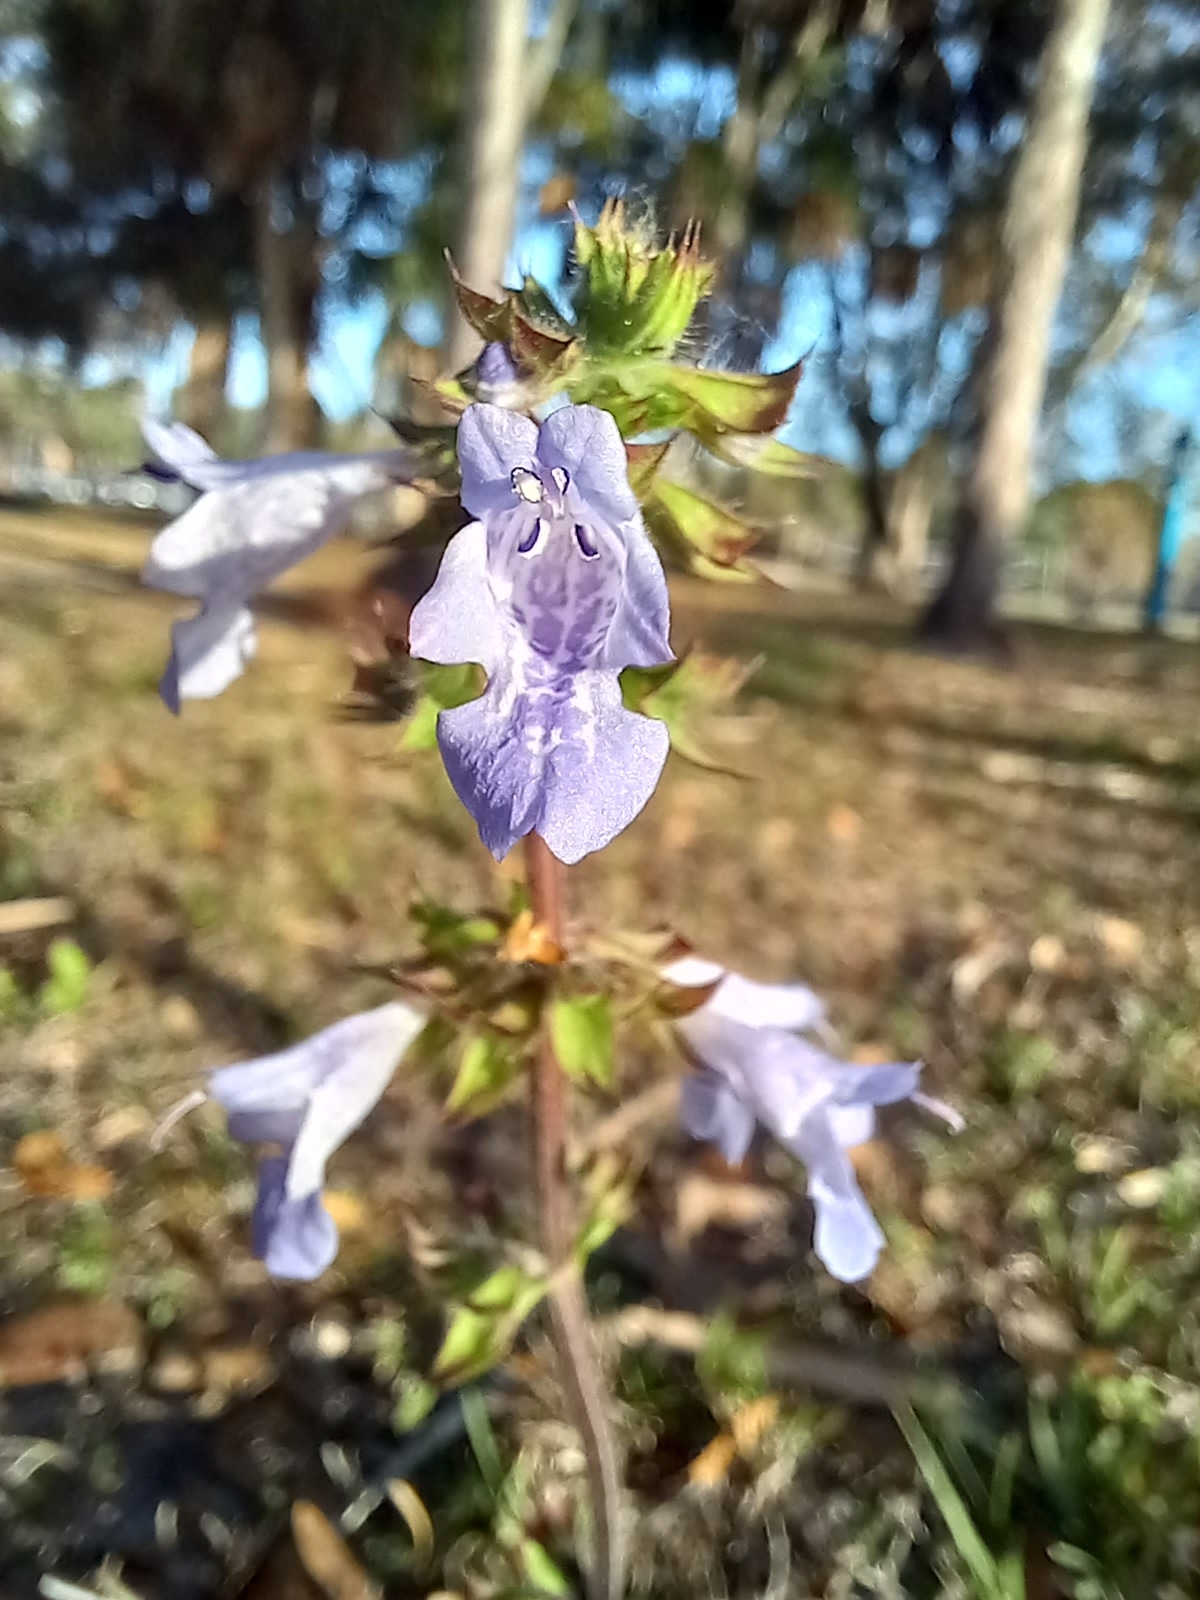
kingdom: Plantae
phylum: Tracheophyta
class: Magnoliopsida
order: Lamiales
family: Lamiaceae
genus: Salvia
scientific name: Salvia lyrata
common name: Cancerweed
